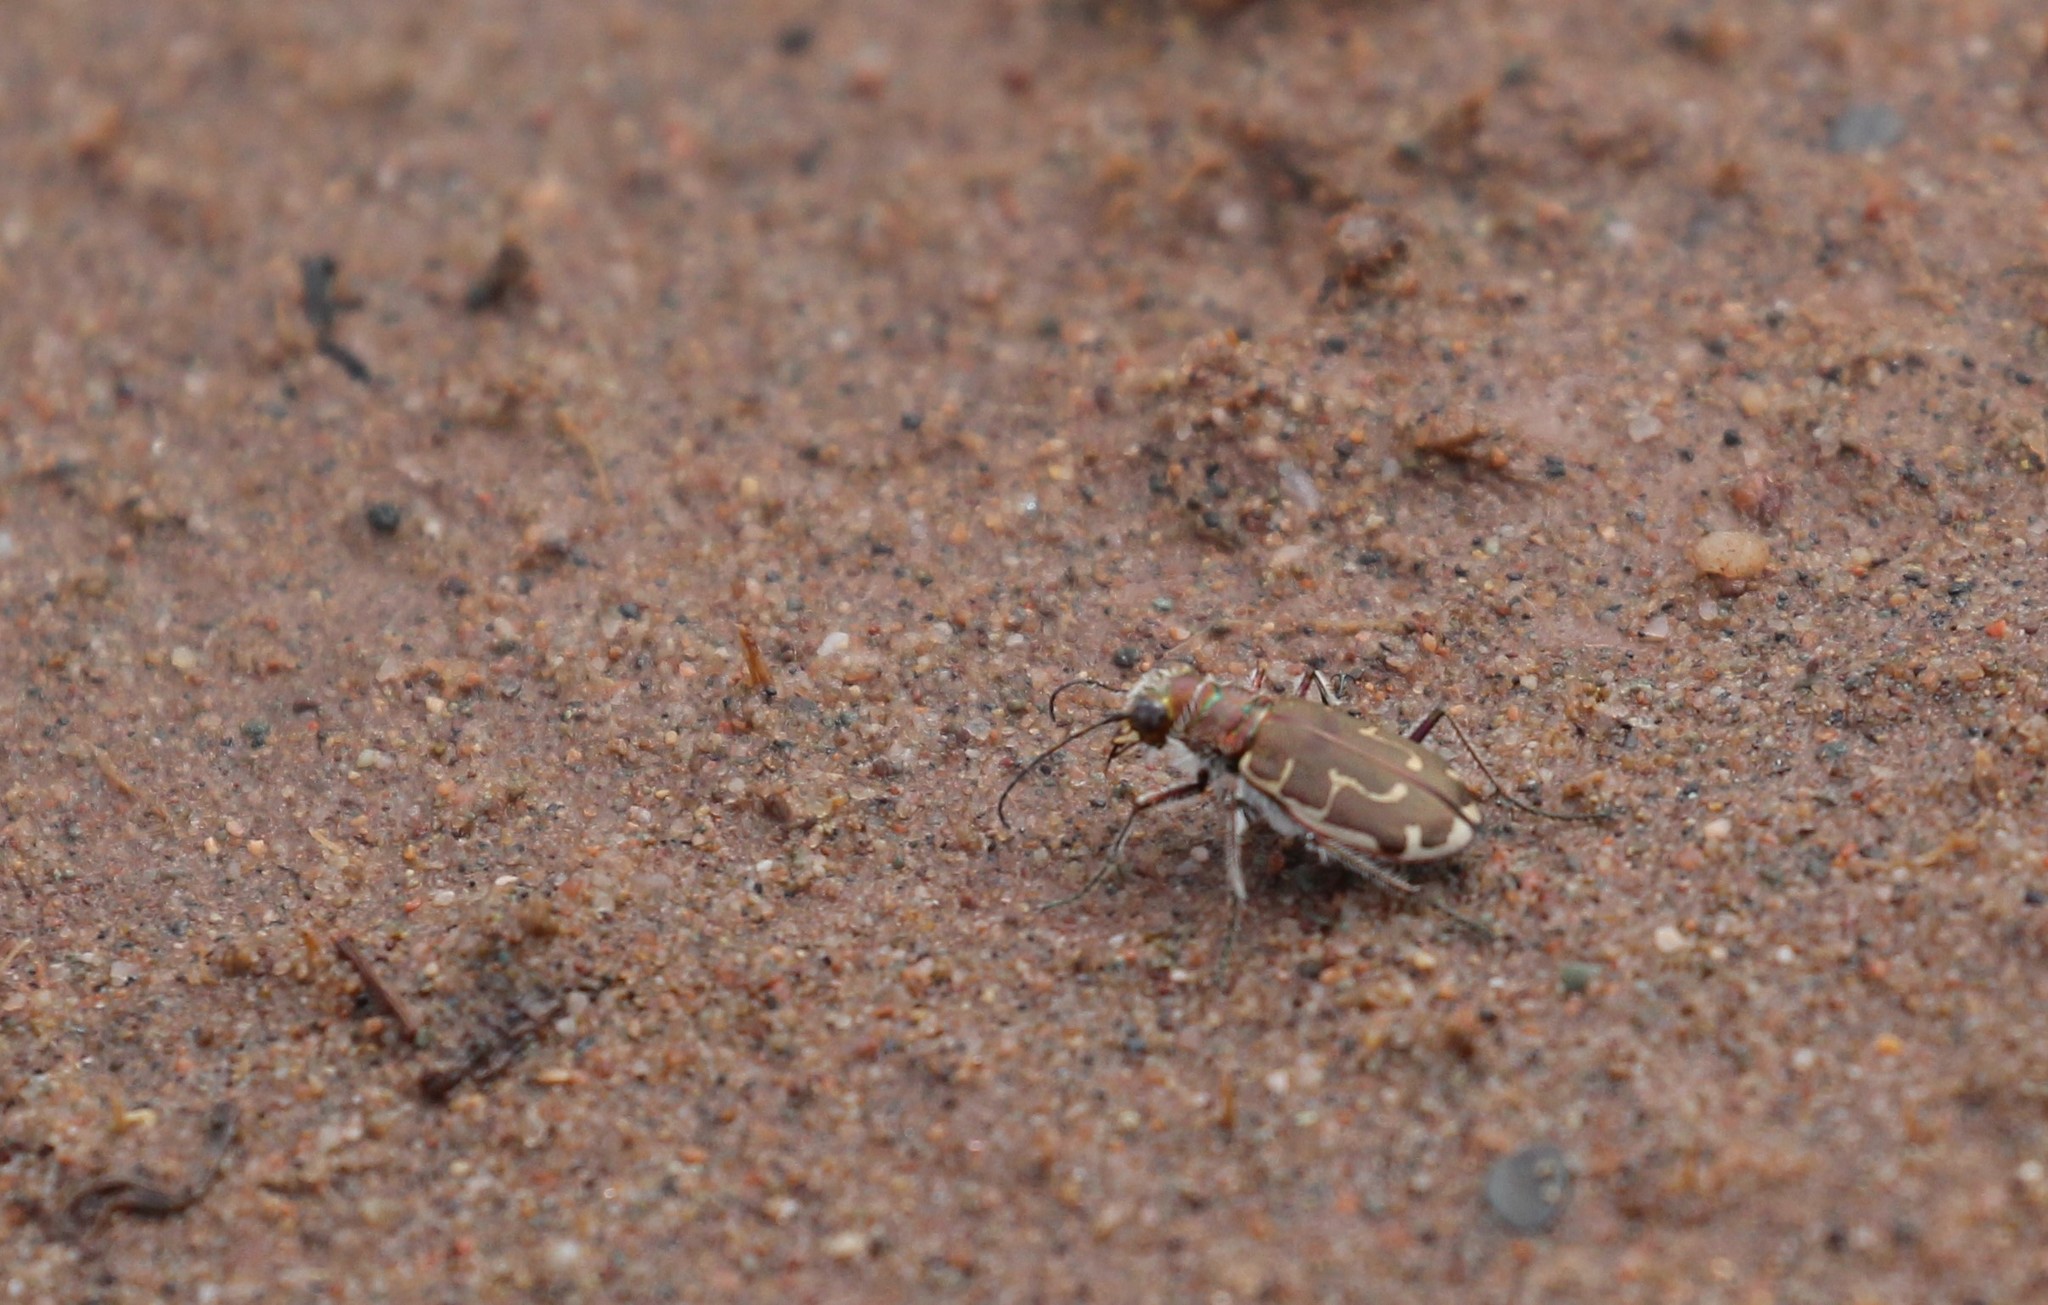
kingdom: Animalia
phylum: Arthropoda
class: Insecta
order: Coleoptera
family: Carabidae
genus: Cicindela
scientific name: Cicindela hirticollis
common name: Hairy-necked tiger beetle
